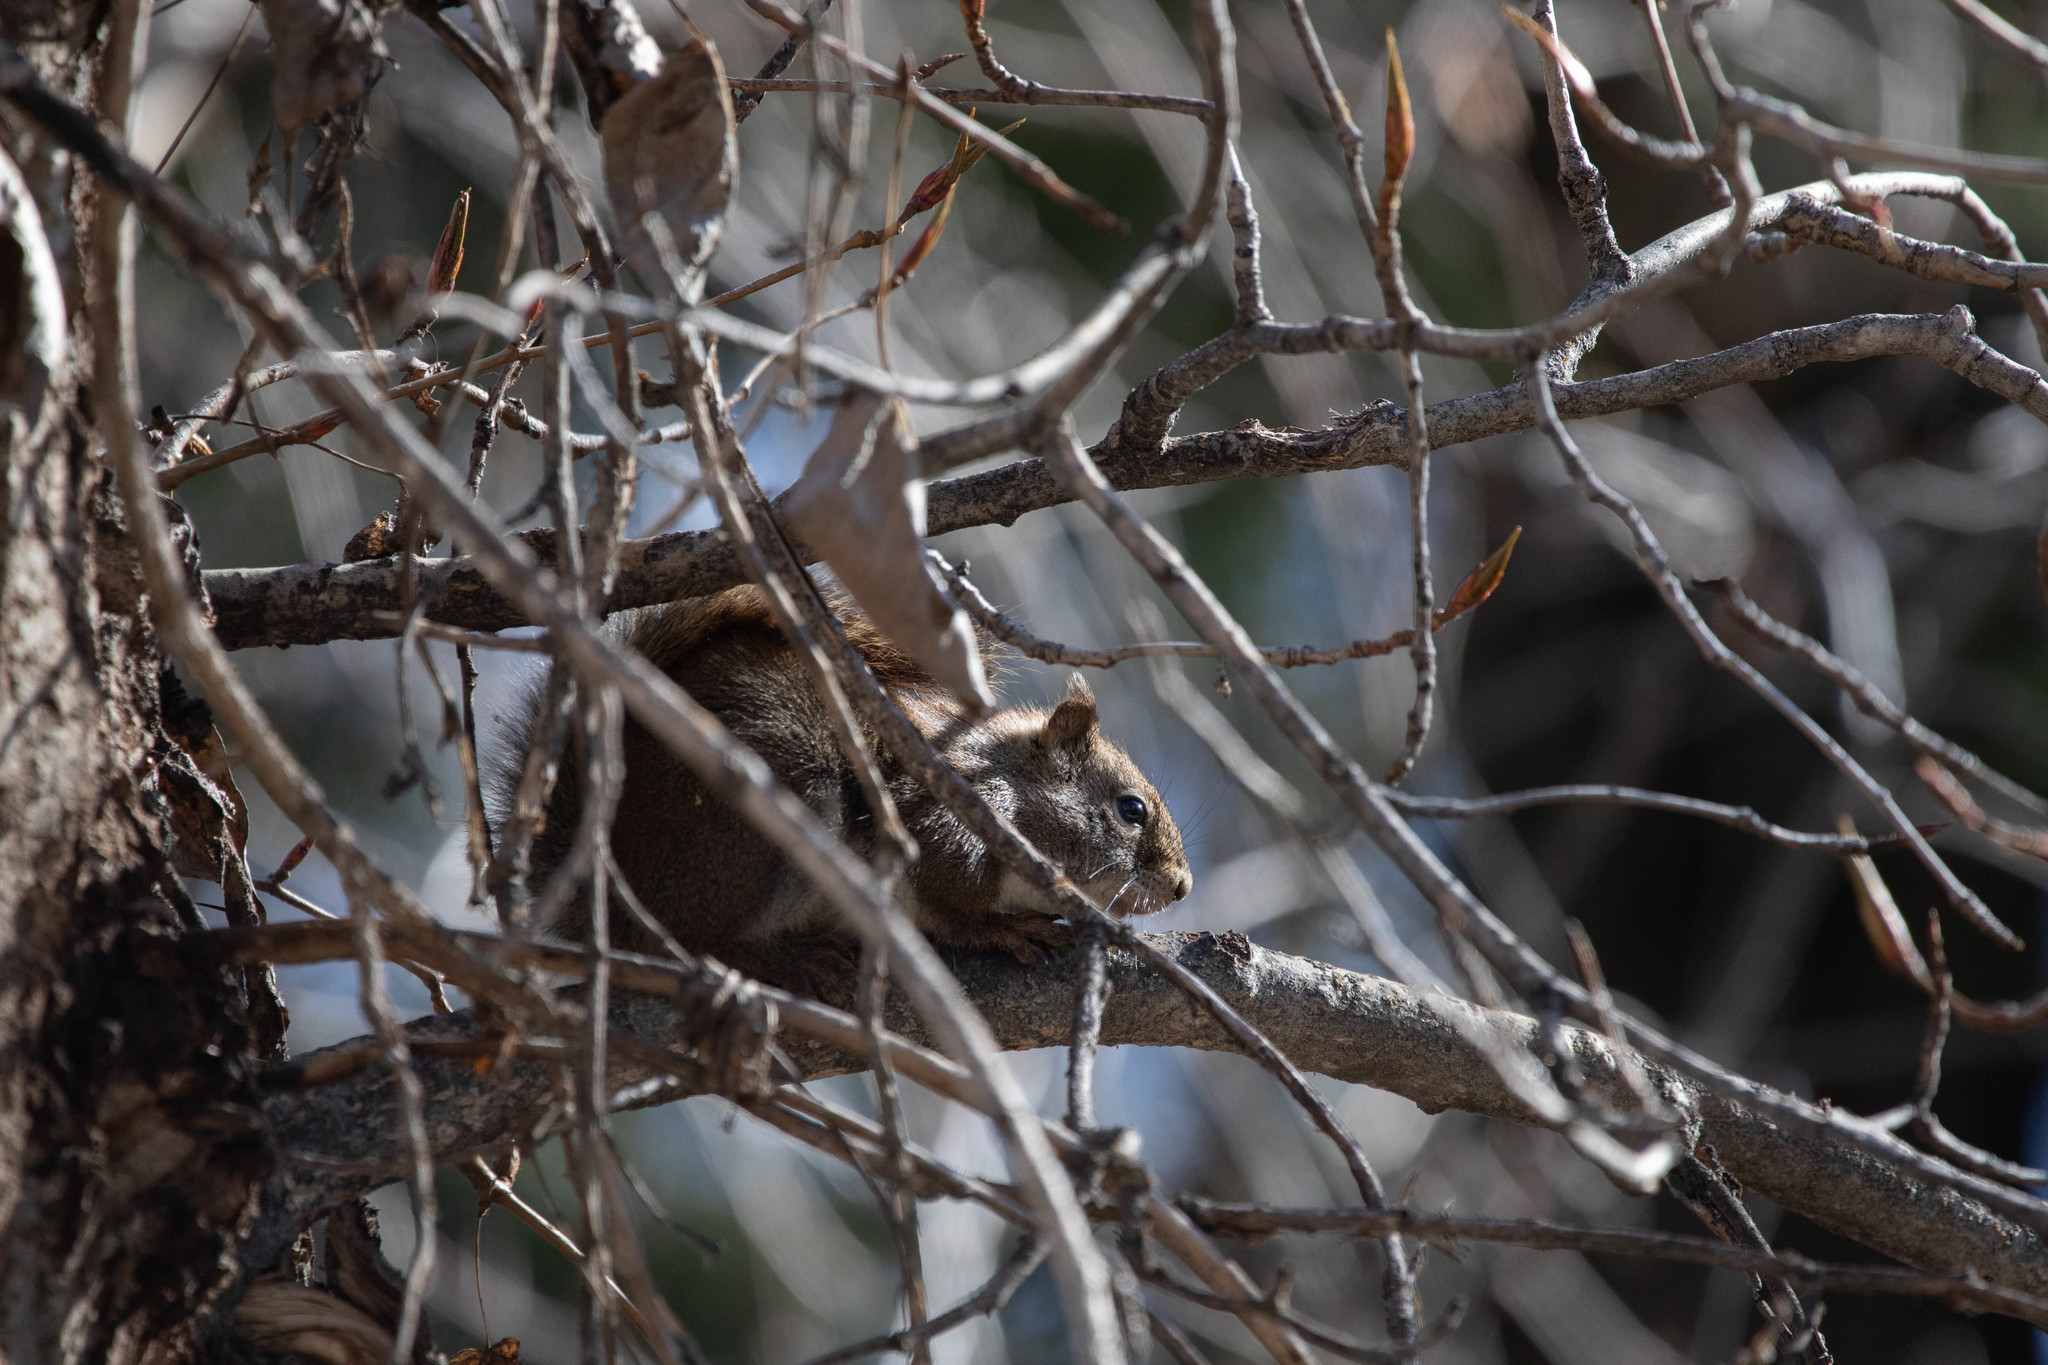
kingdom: Animalia
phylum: Chordata
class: Mammalia
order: Rodentia
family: Sciuridae
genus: Tamiasciurus
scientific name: Tamiasciurus hudsonicus
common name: Red squirrel
